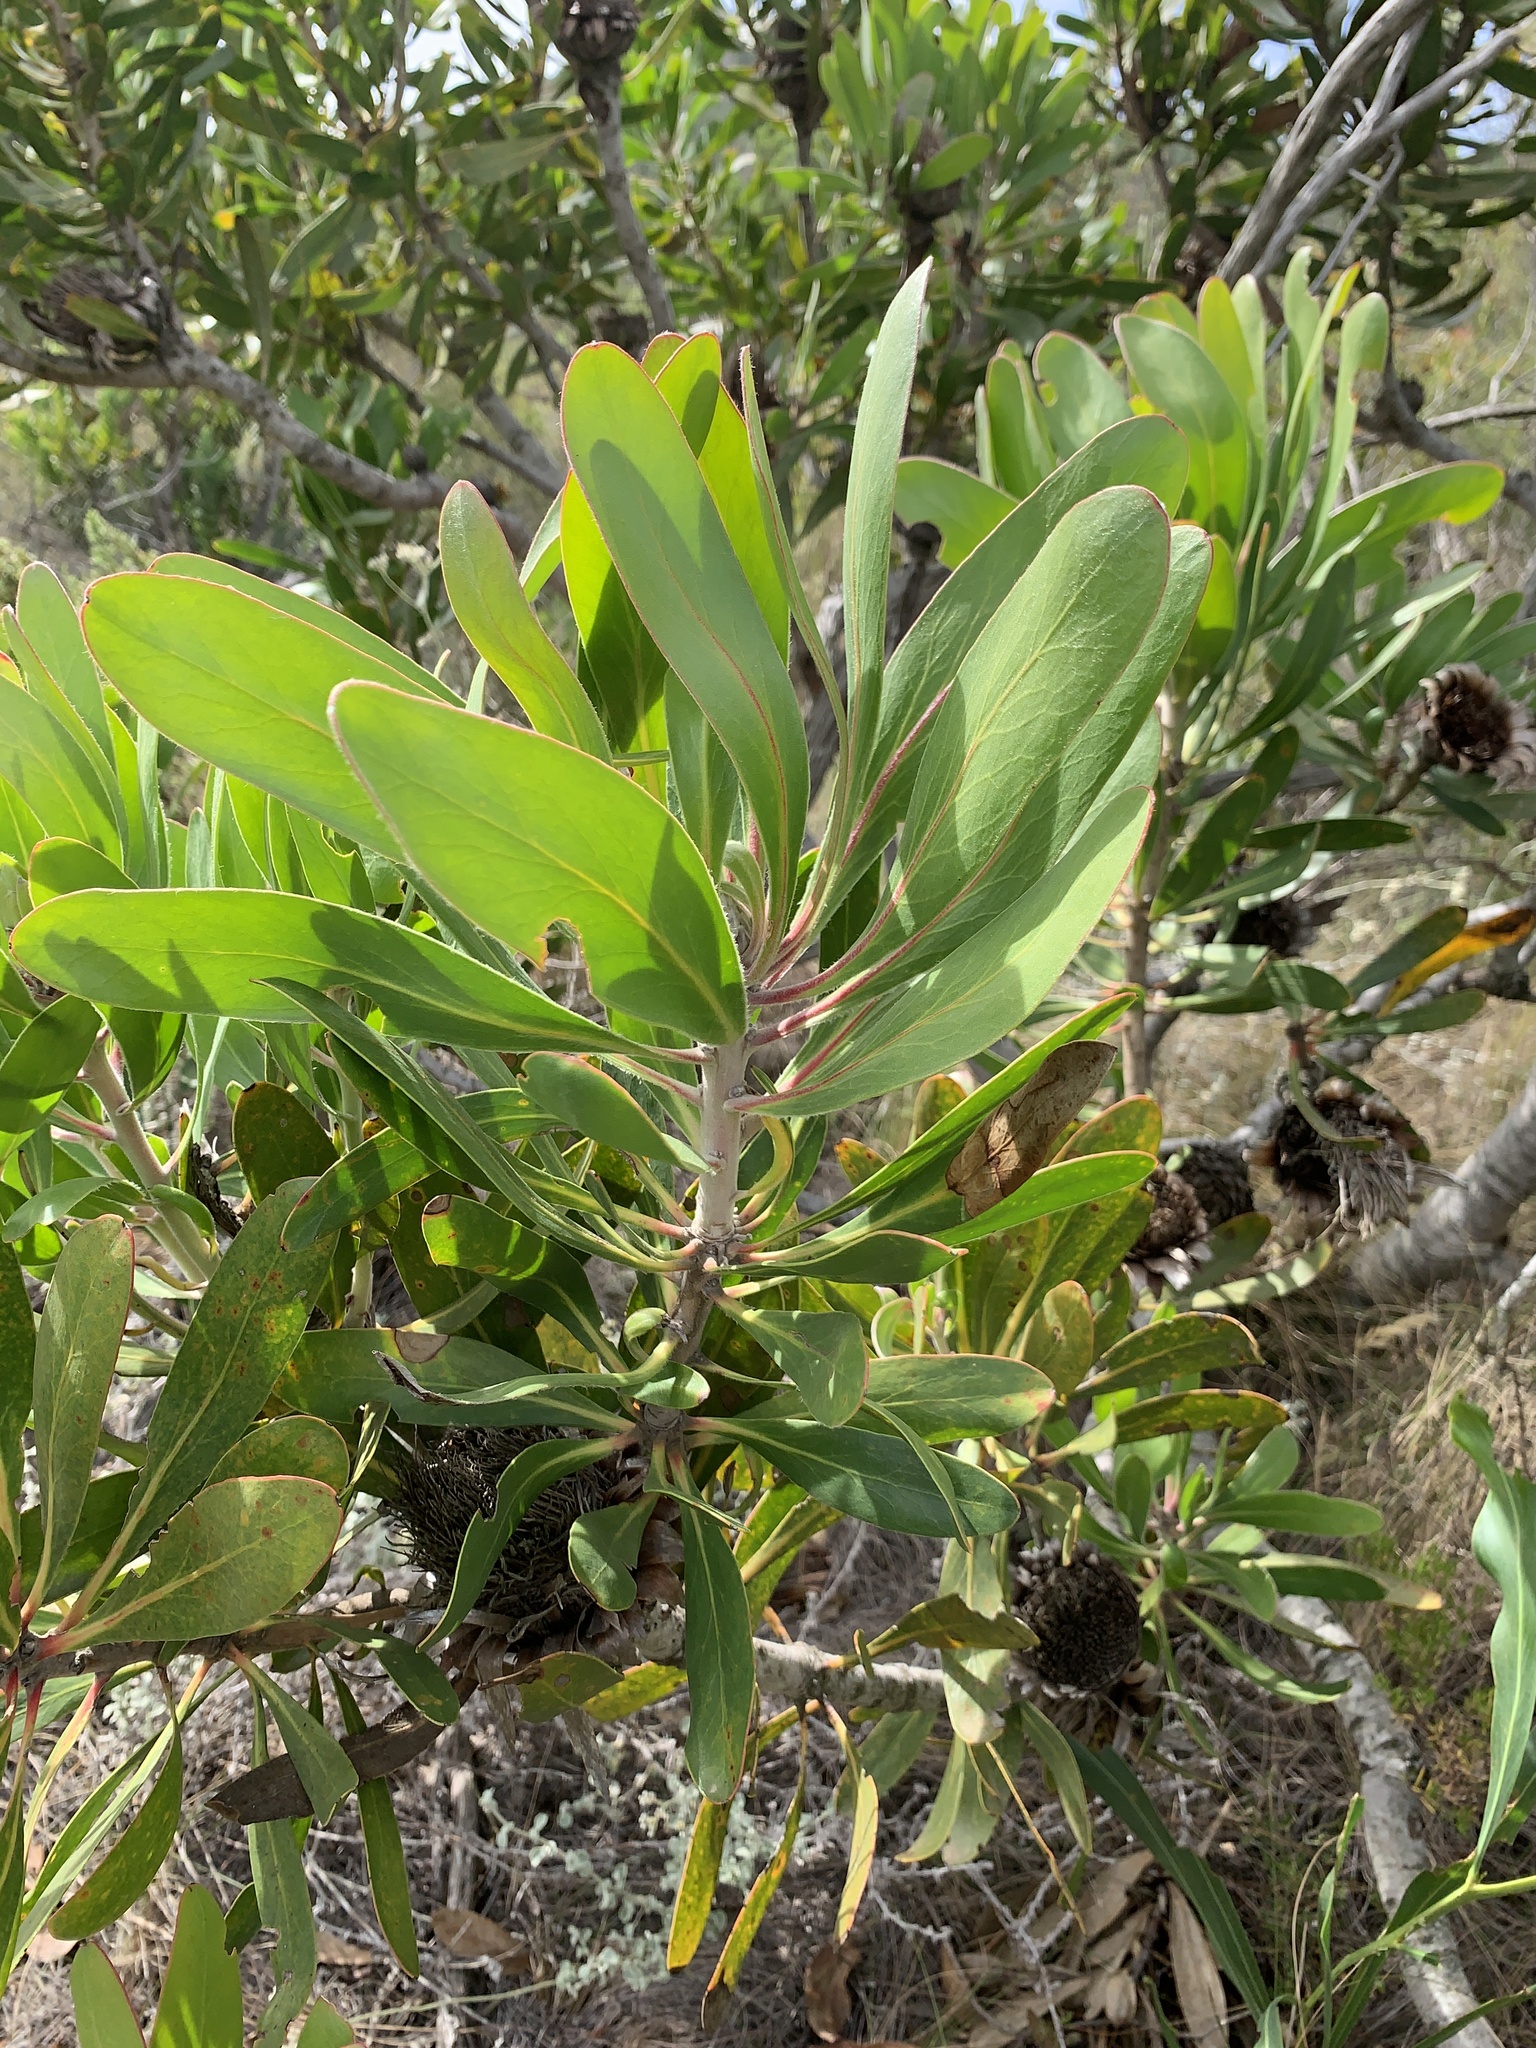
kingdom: Plantae
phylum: Tracheophyta
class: Magnoliopsida
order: Proteales
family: Proteaceae
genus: Protea
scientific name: Protea obtusifolia
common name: Bredasdorp sugarbush
